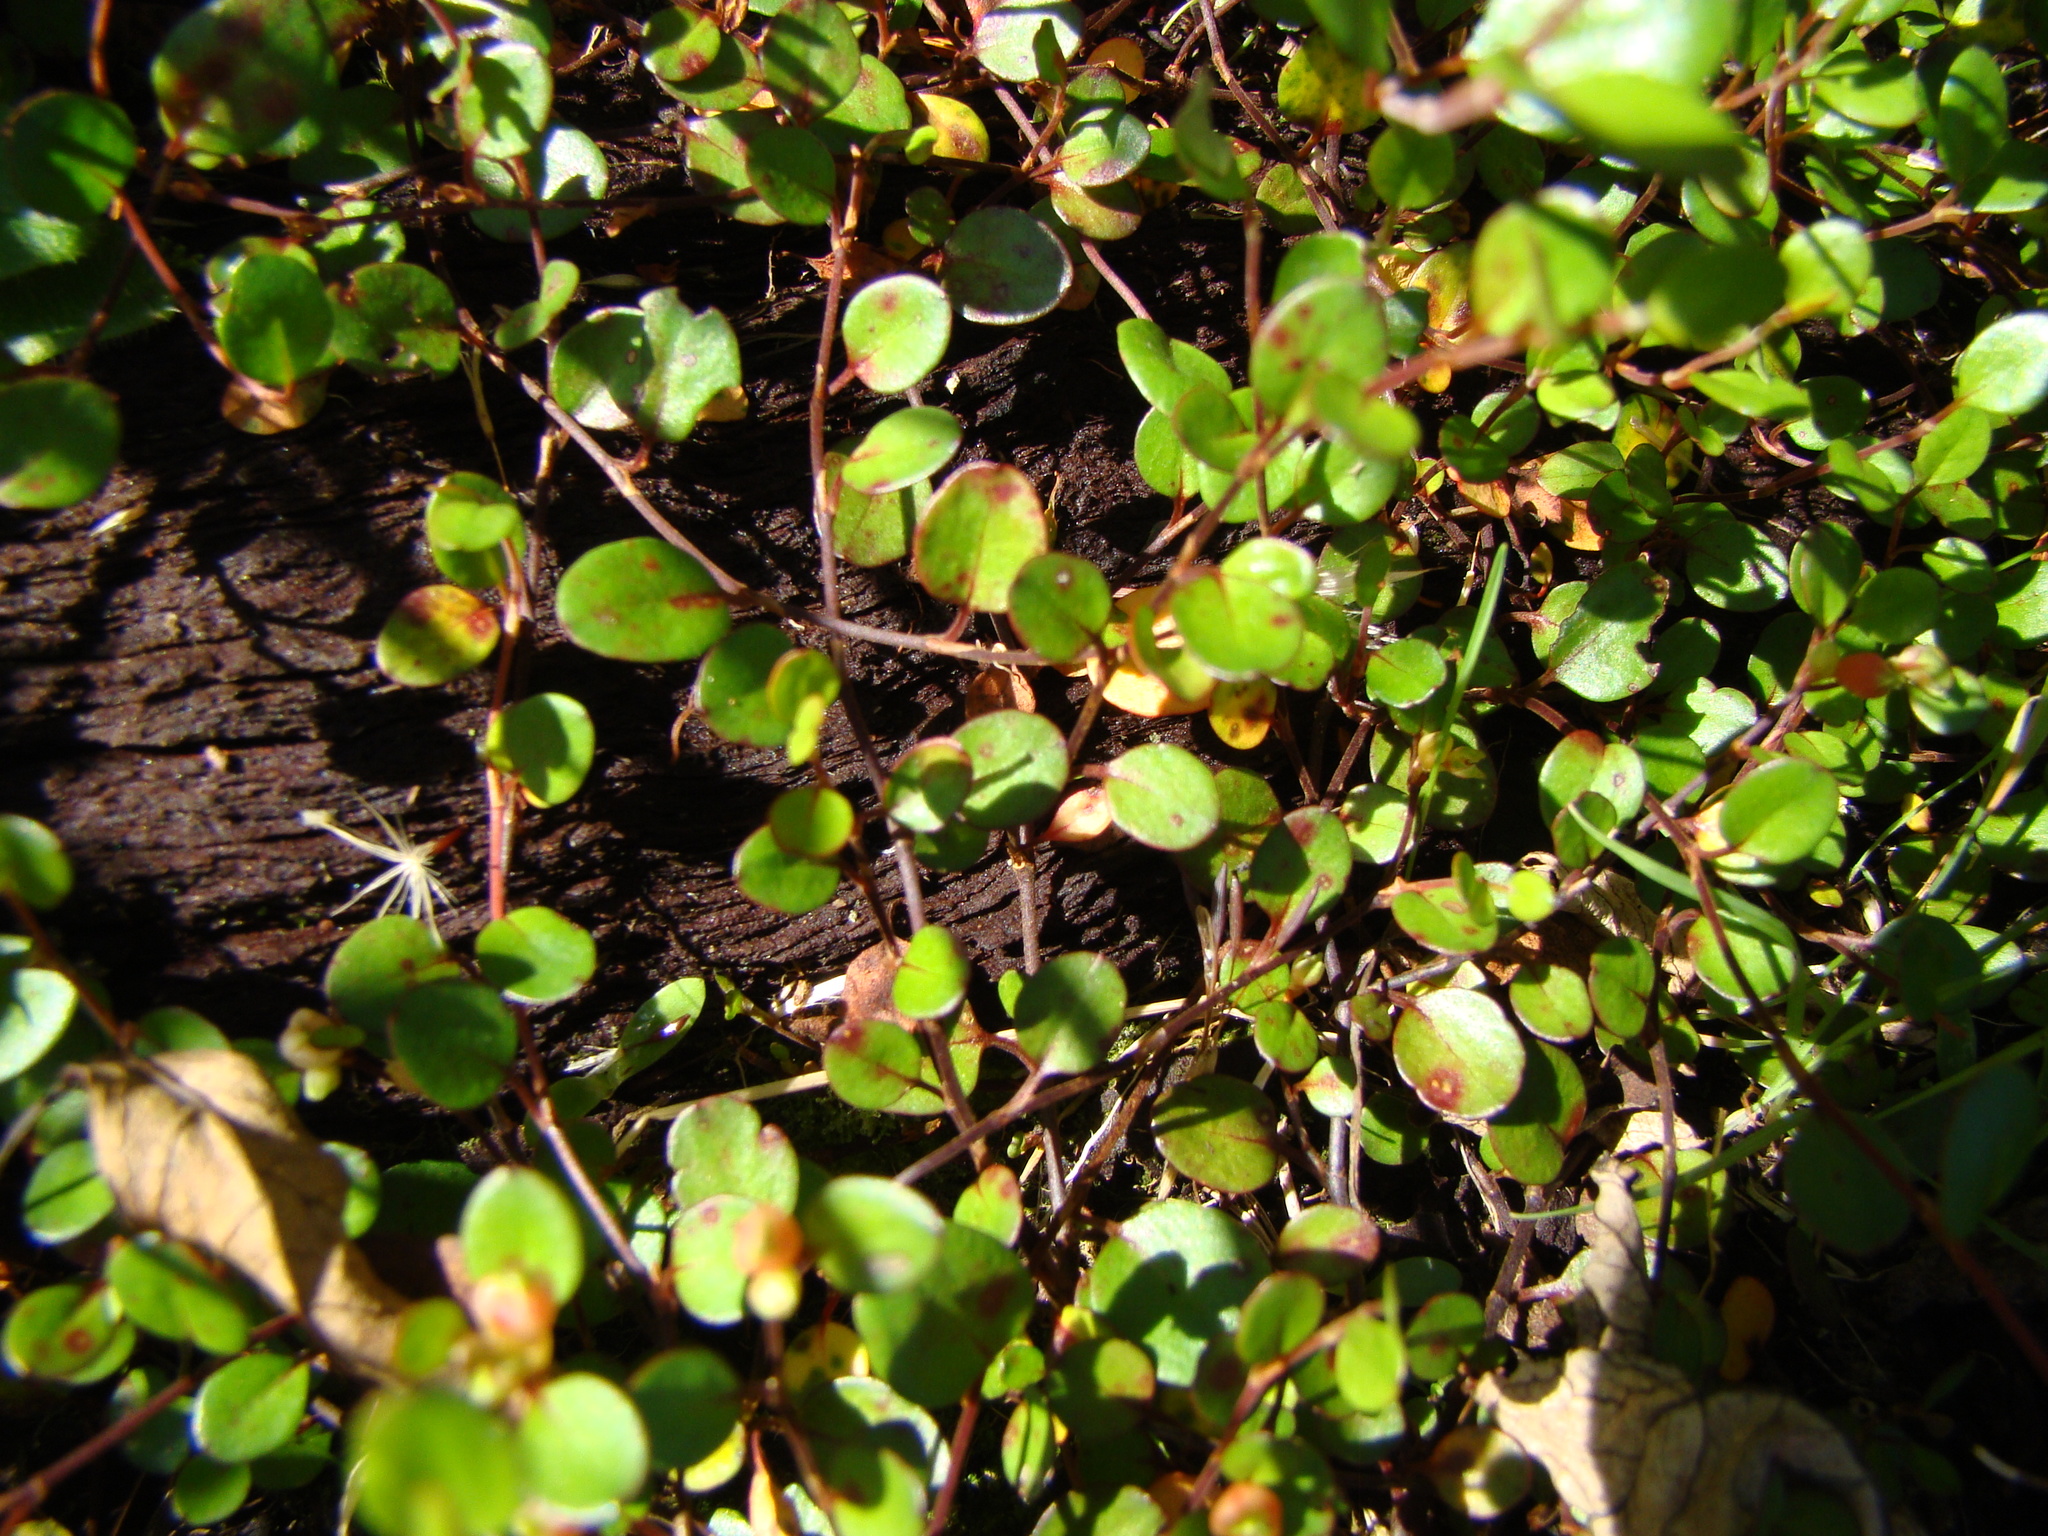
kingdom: Plantae
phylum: Tracheophyta
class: Magnoliopsida
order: Caryophyllales
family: Polygonaceae
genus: Muehlenbeckia
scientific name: Muehlenbeckia axillaris
